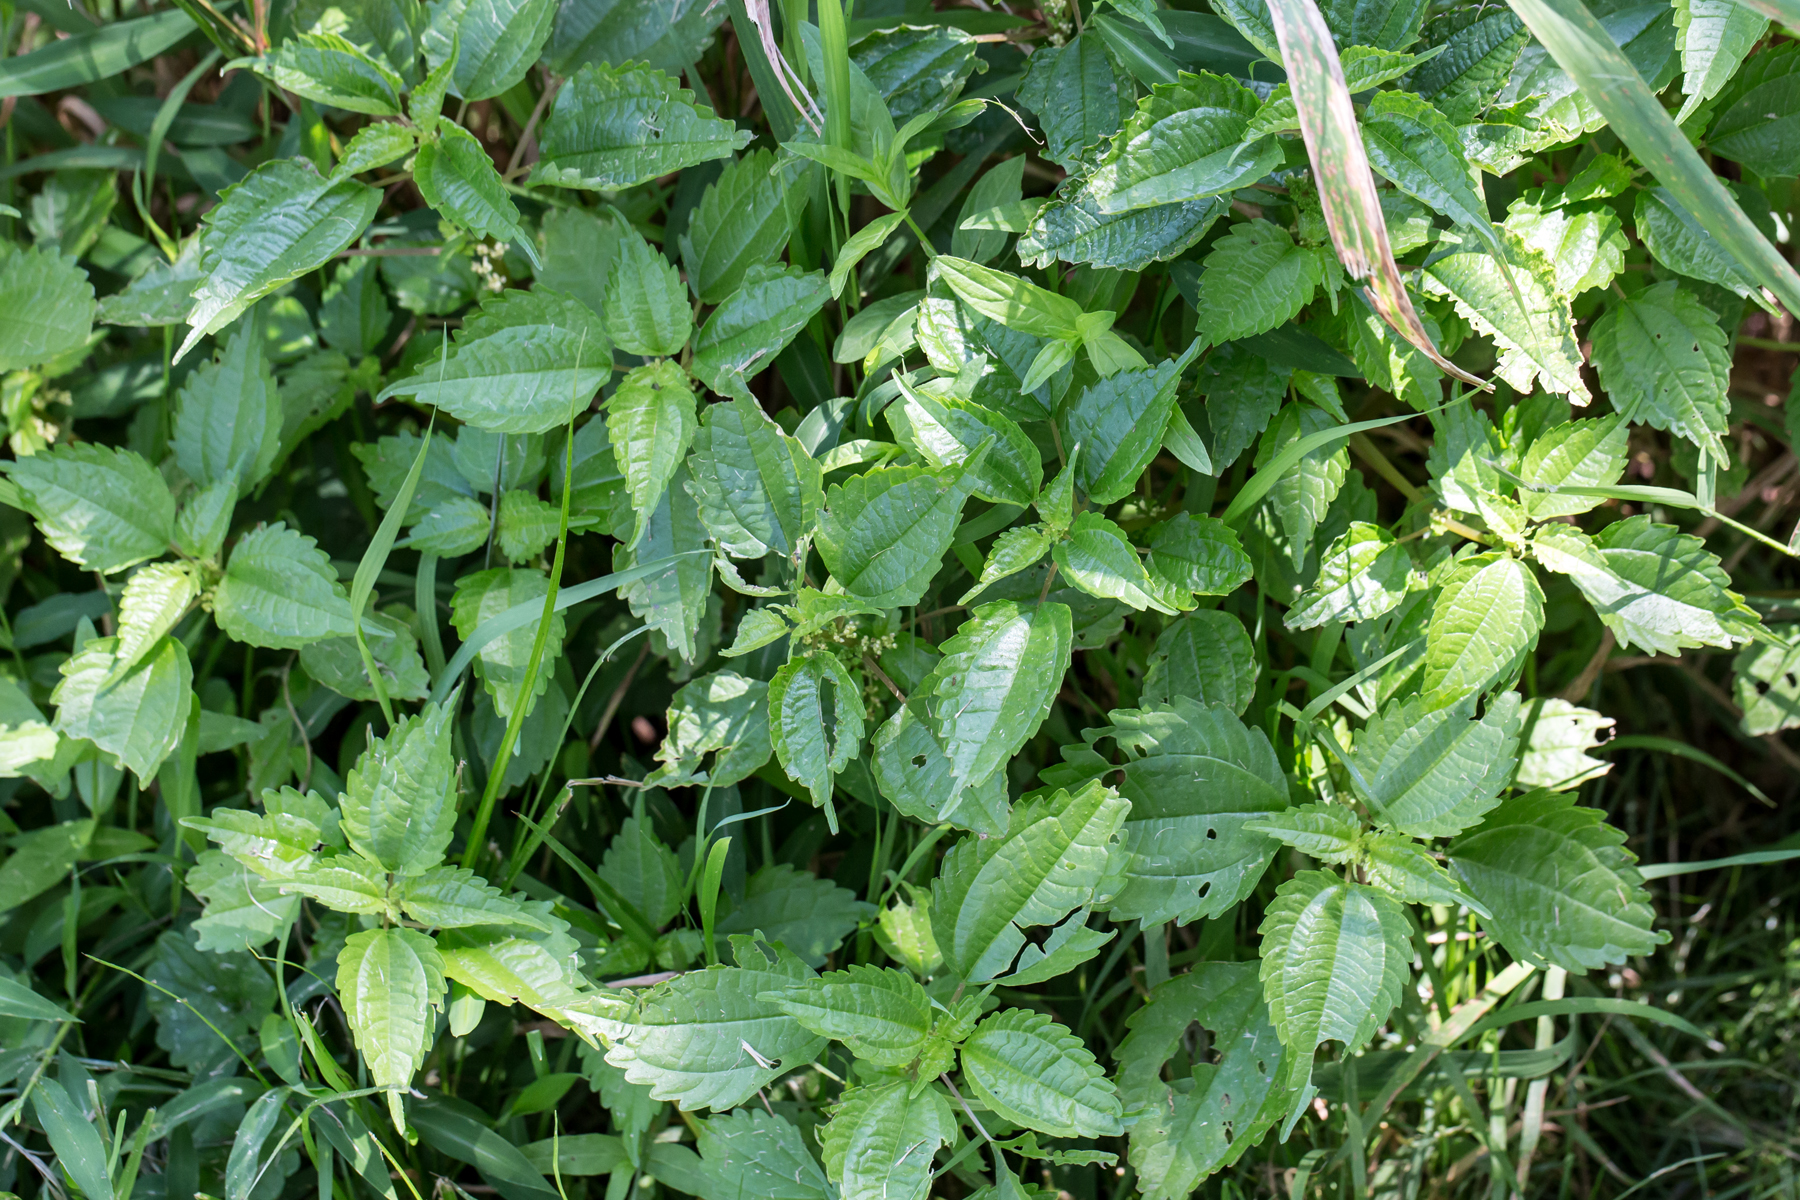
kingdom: Plantae
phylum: Tracheophyta
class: Magnoliopsida
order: Rosales
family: Urticaceae
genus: Pilea
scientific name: Pilea pumila
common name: Clearweed
